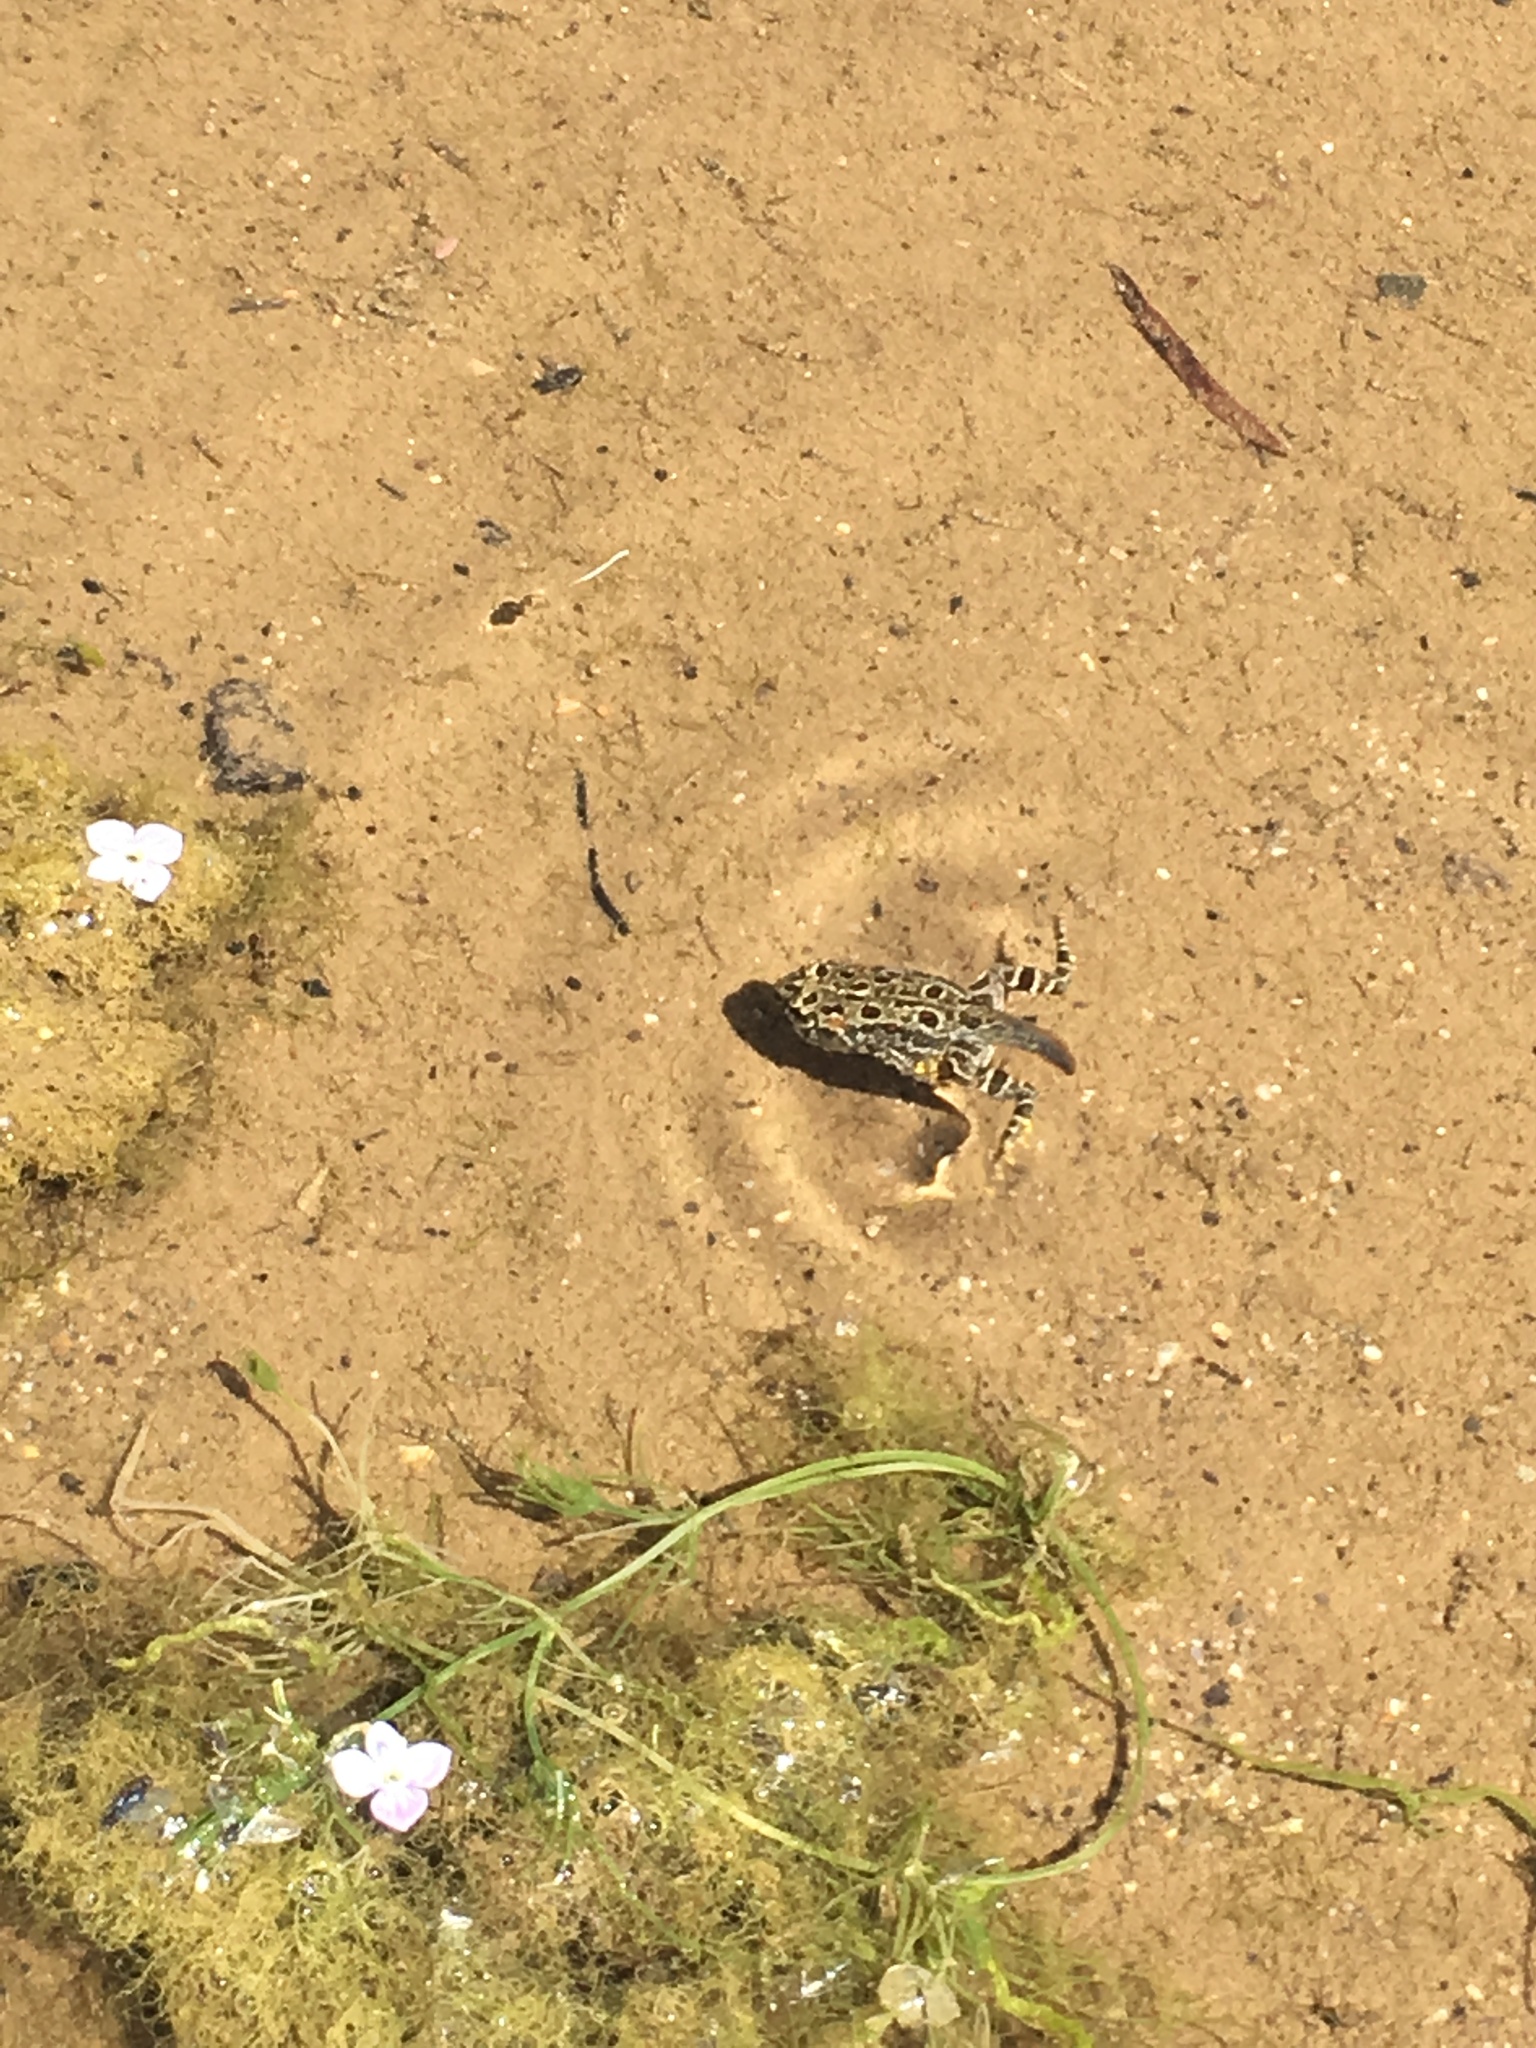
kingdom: Animalia
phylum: Chordata
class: Amphibia
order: Anura
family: Bufonidae
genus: Anaxyrus
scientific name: Anaxyrus boreas
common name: Western toad
